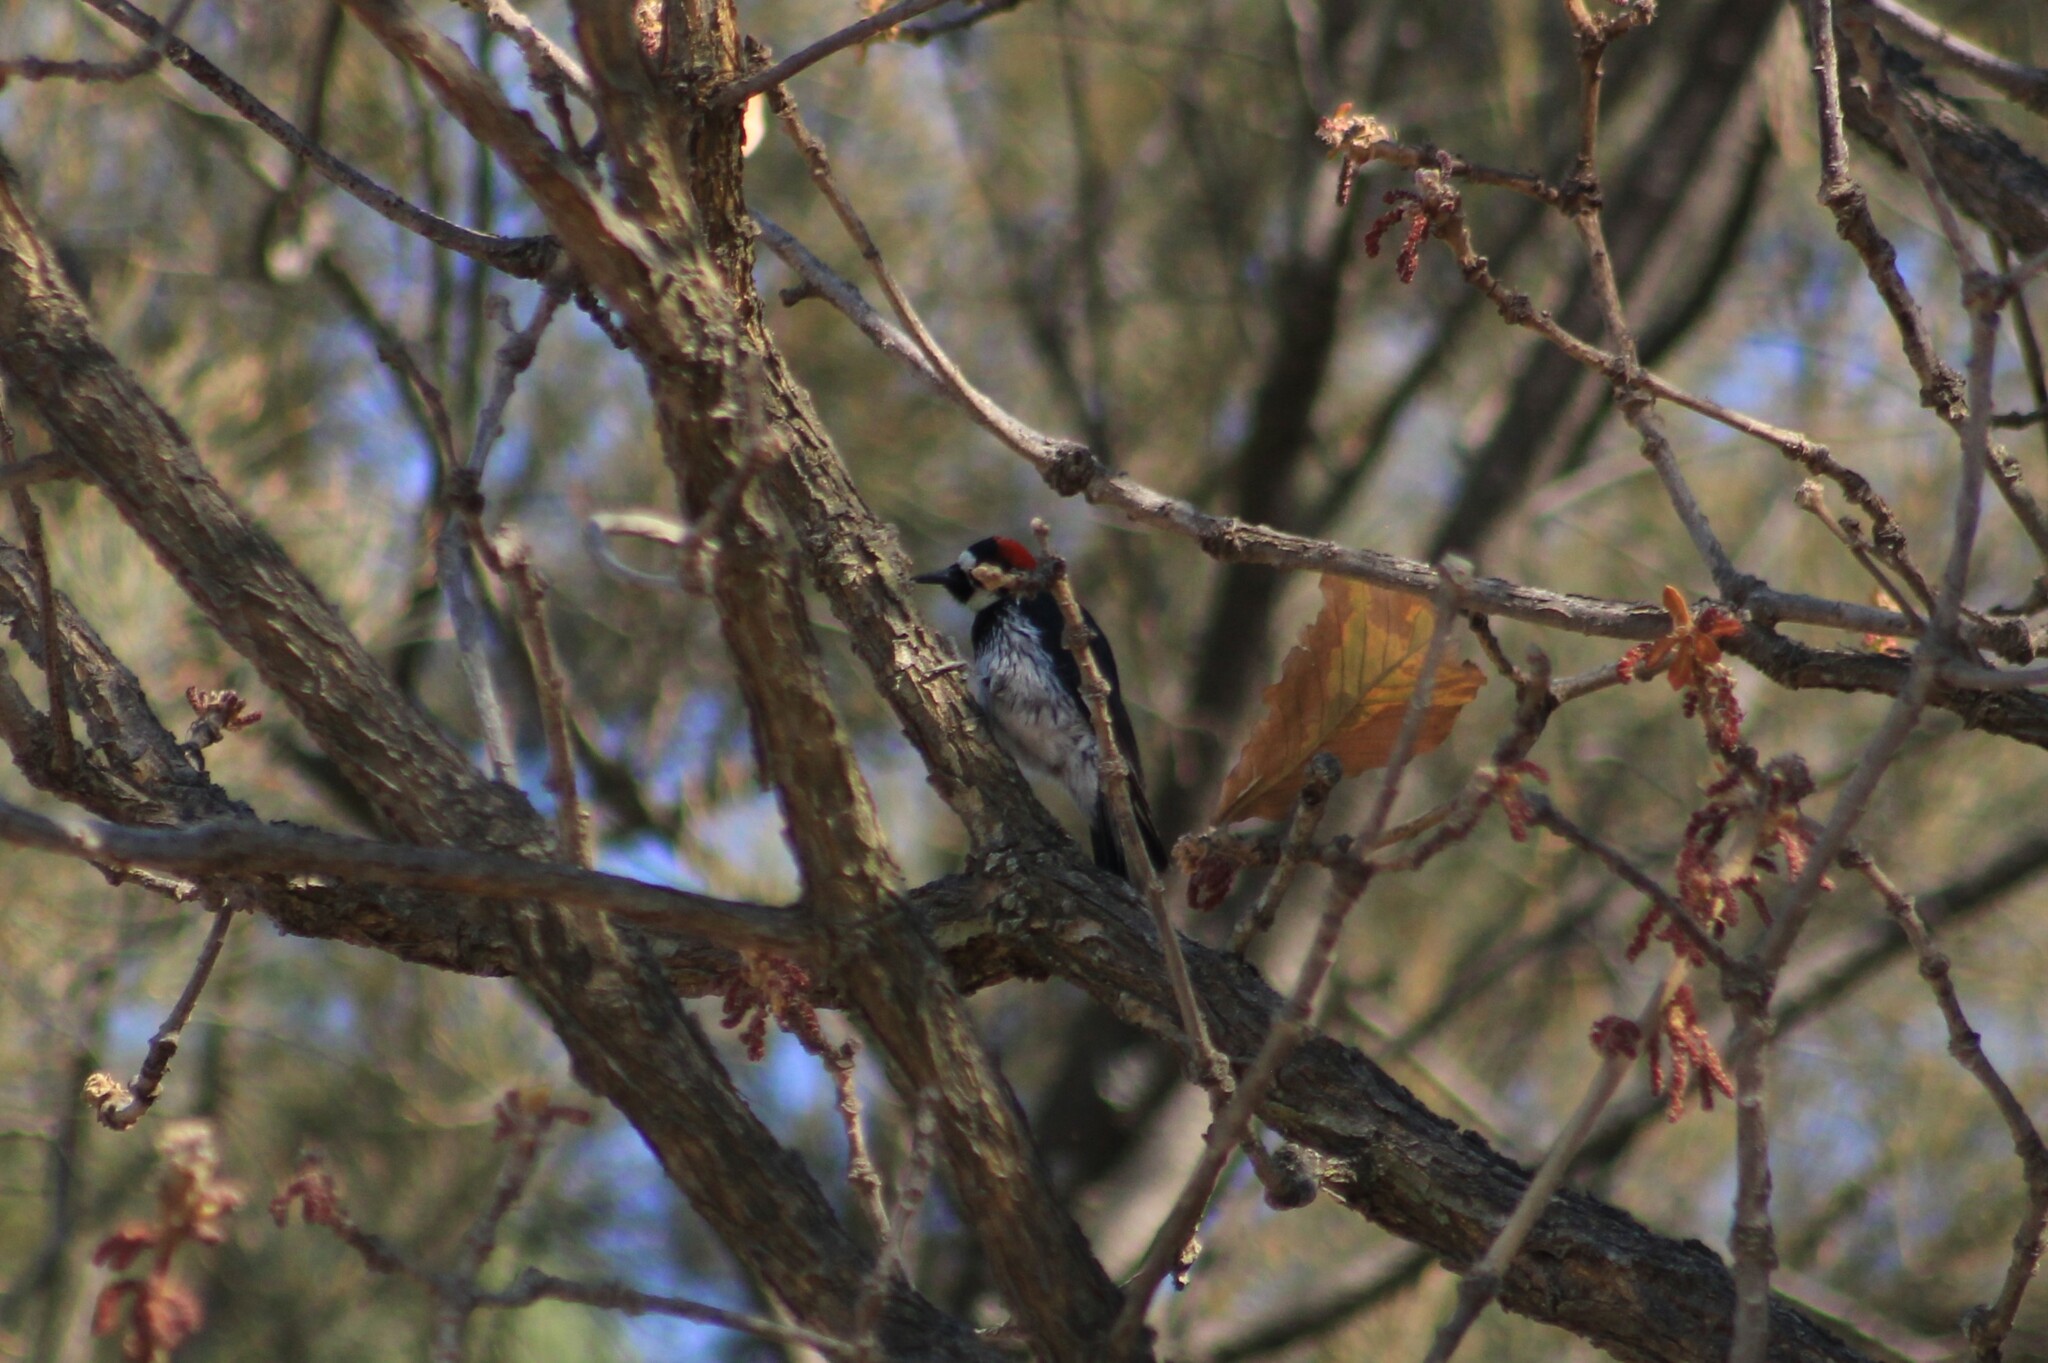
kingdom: Animalia
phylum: Chordata
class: Aves
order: Piciformes
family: Picidae
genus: Melanerpes
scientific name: Melanerpes formicivorus
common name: Acorn woodpecker
